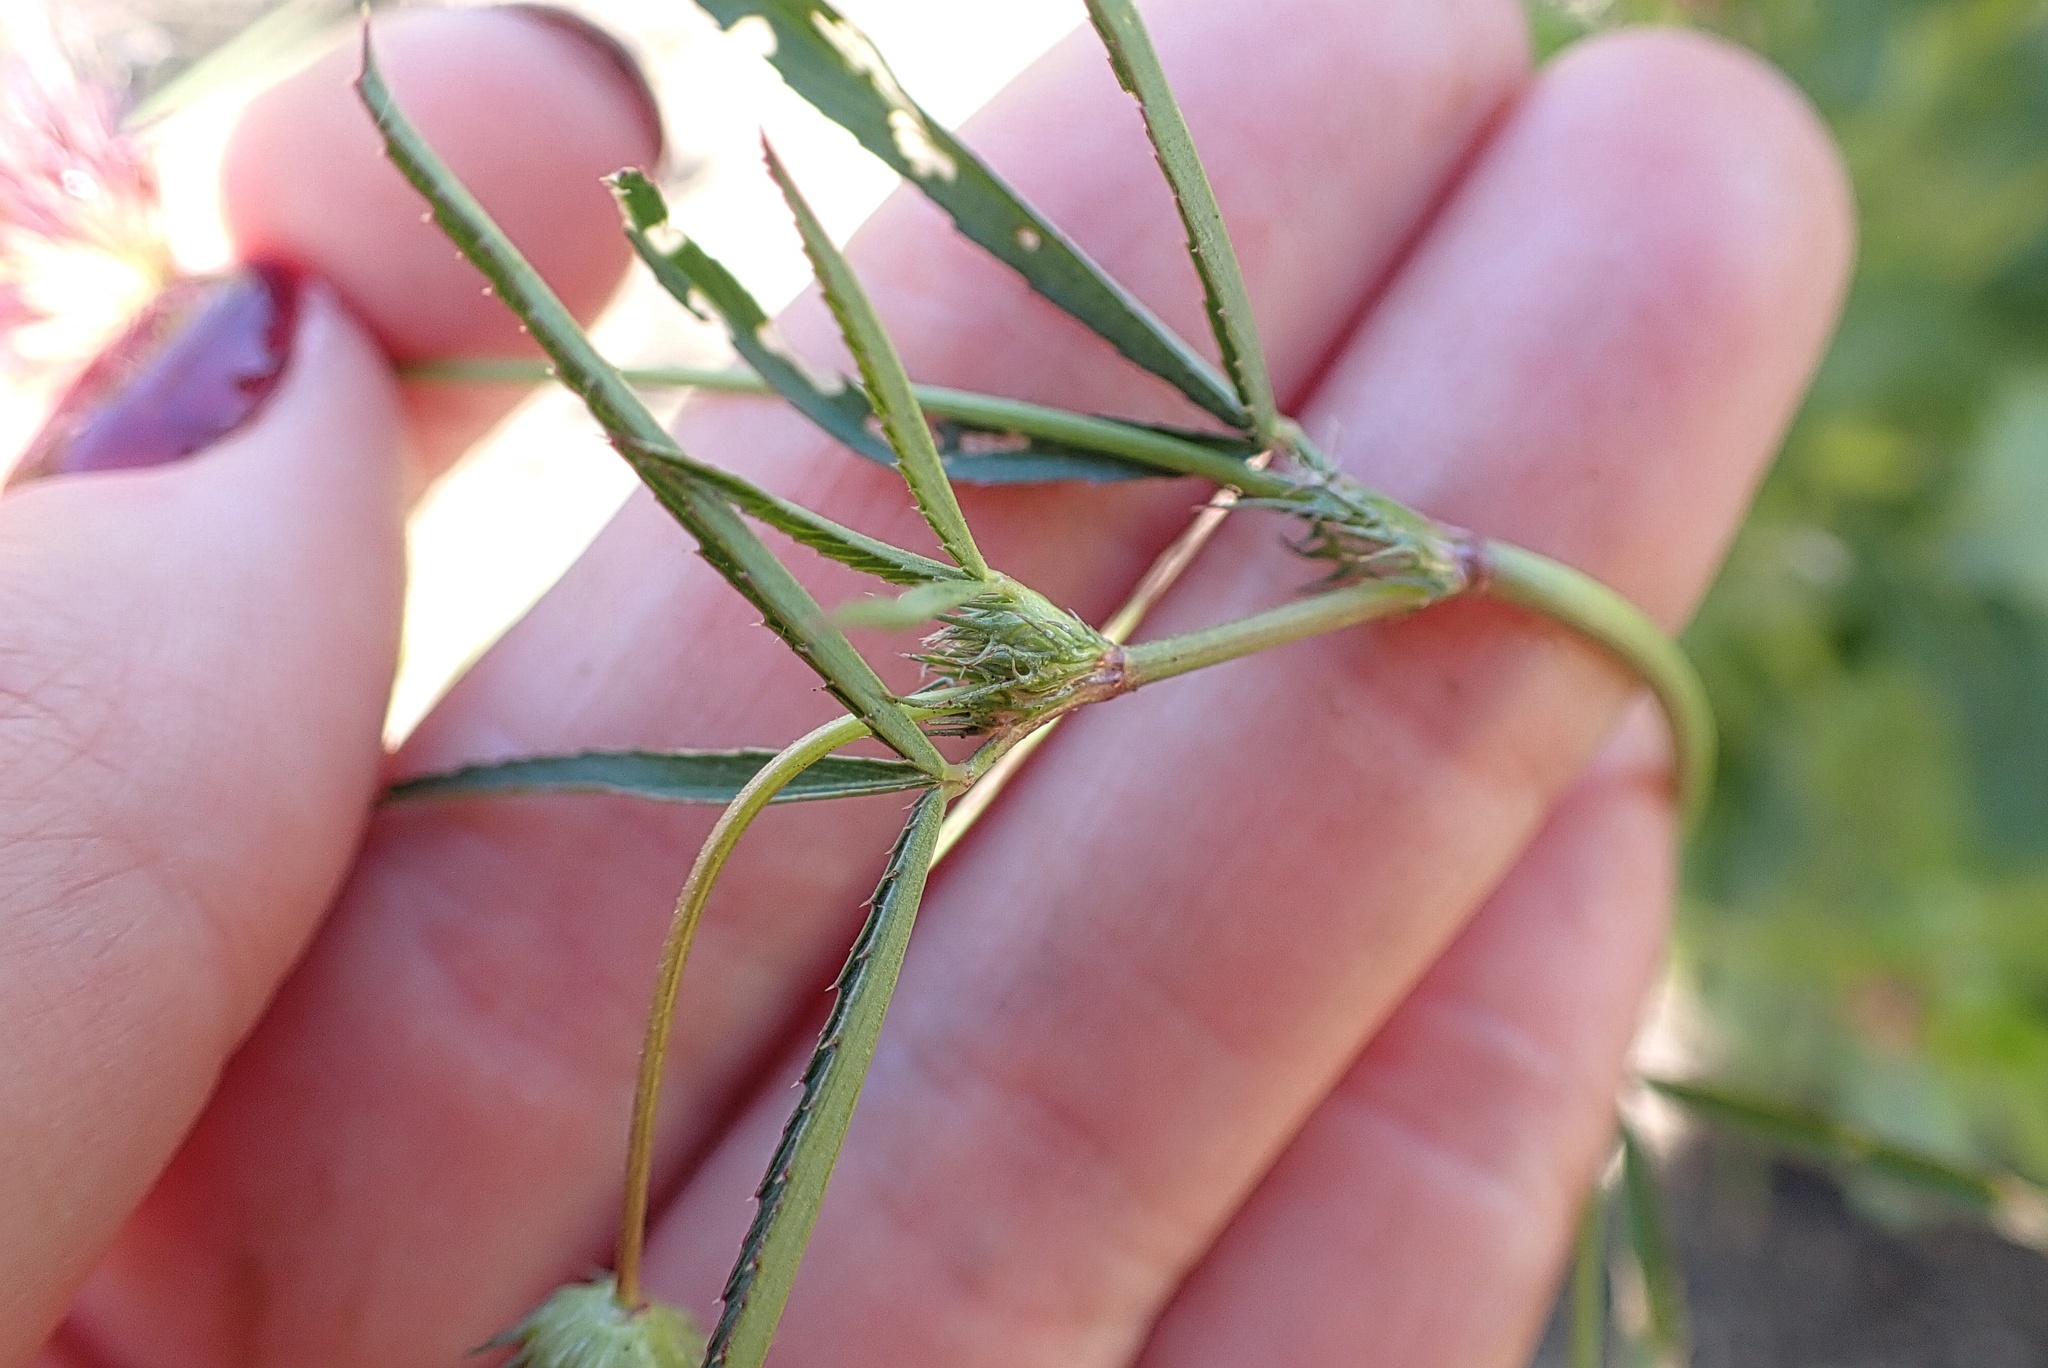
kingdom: Plantae
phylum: Tracheophyta
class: Magnoliopsida
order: Fabales
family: Fabaceae
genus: Trifolium
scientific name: Trifolium willdenovii
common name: Tomcat clover
